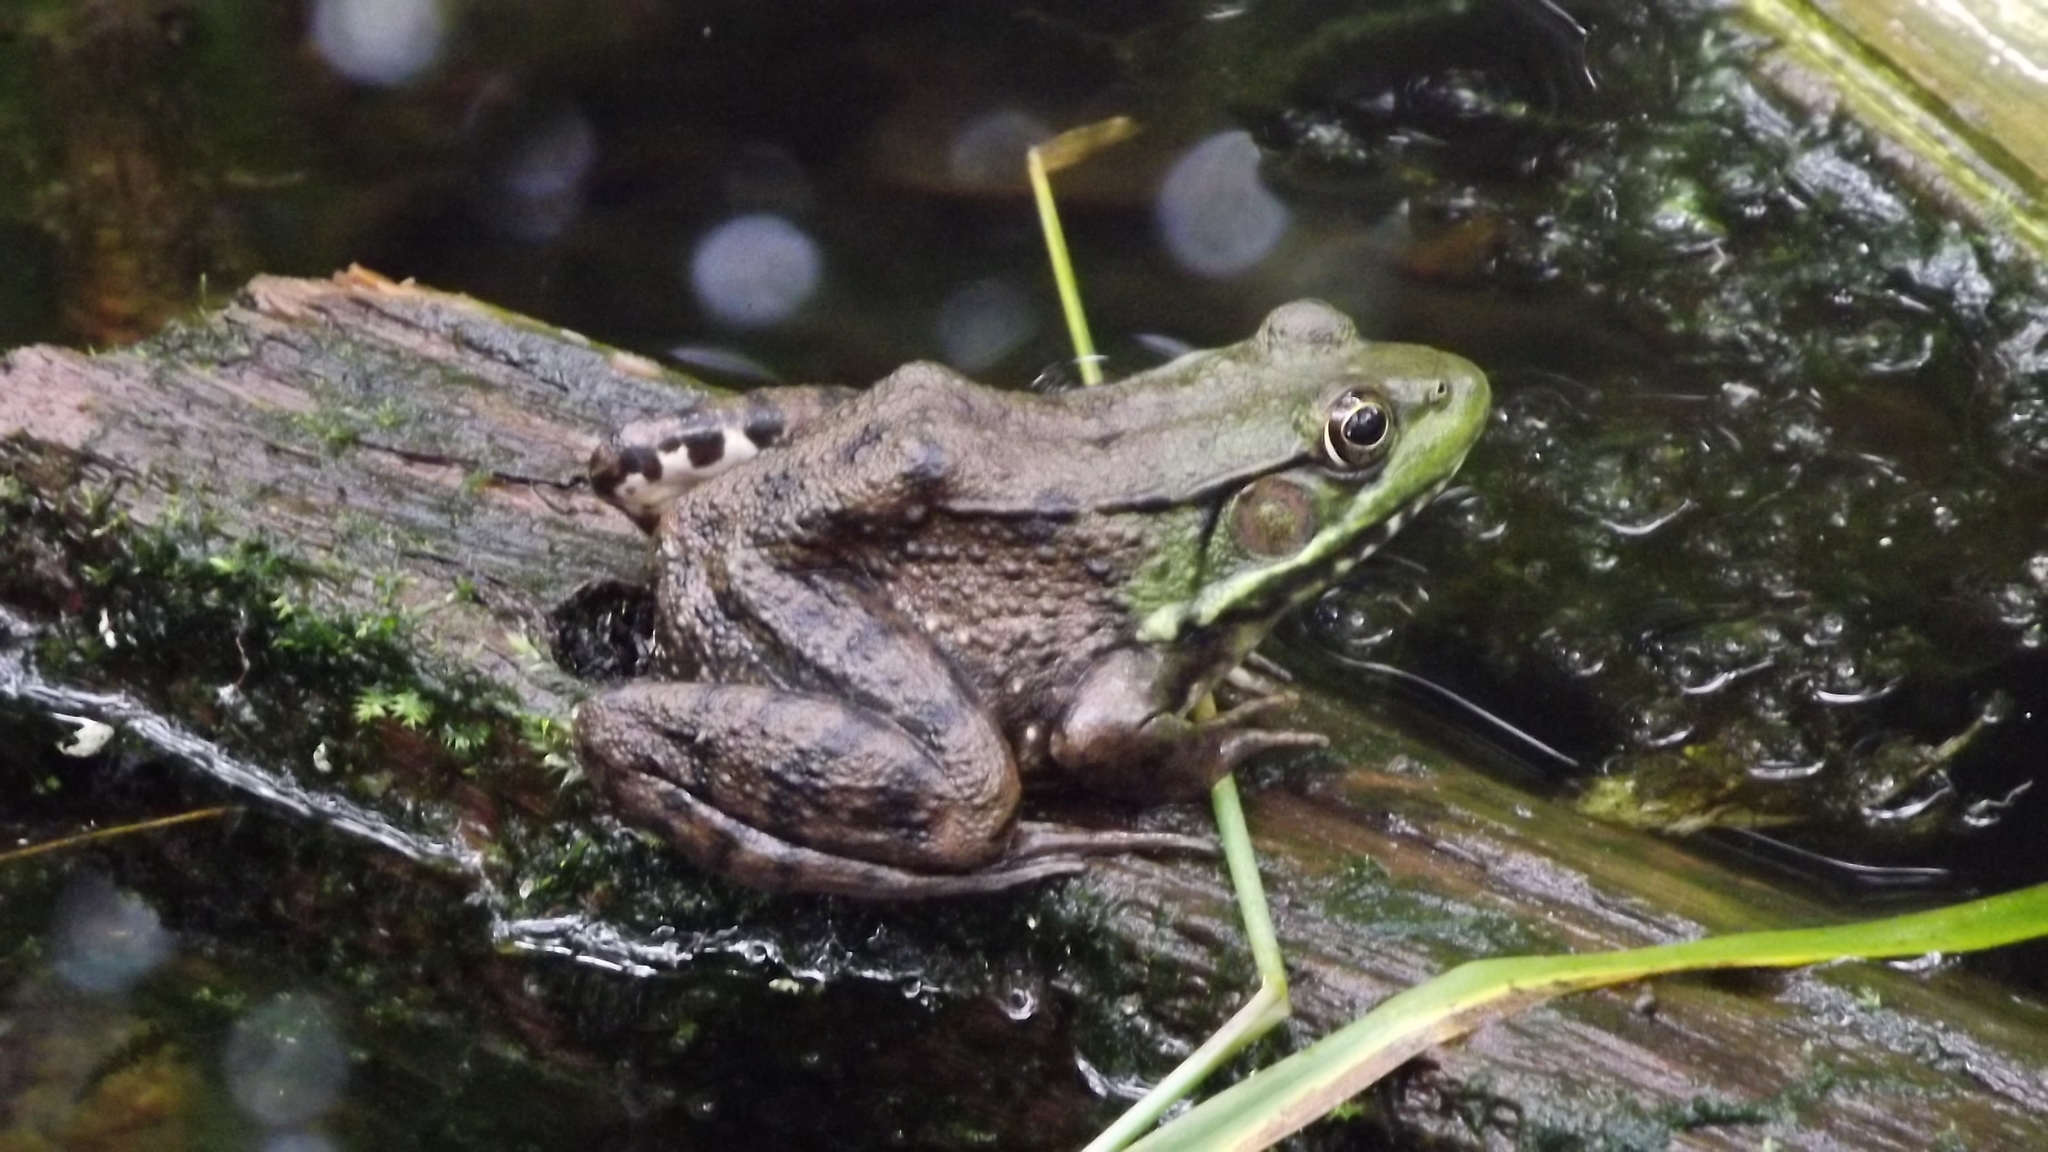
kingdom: Animalia
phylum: Chordata
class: Amphibia
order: Anura
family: Ranidae
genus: Lithobates
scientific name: Lithobates clamitans
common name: Green frog
